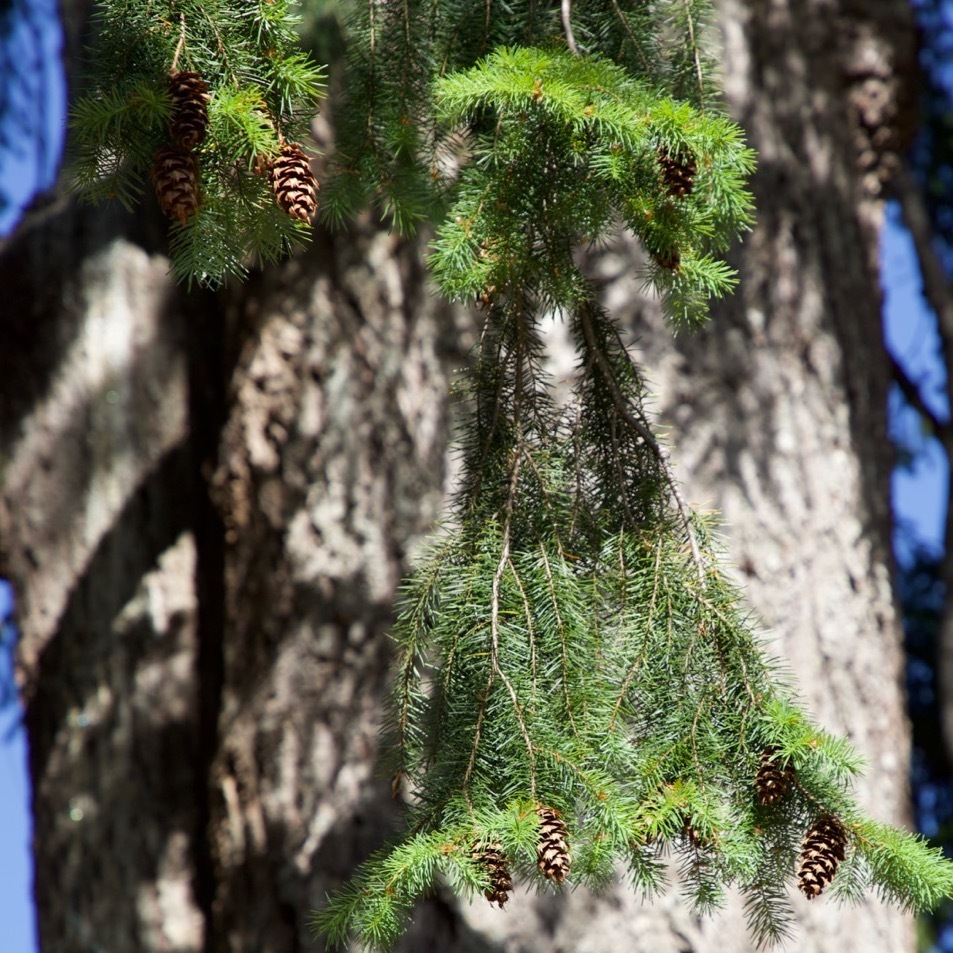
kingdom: Plantae
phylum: Tracheophyta
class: Pinopsida
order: Pinales
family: Pinaceae
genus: Pseudotsuga
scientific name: Pseudotsuga menziesii
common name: Douglas fir
